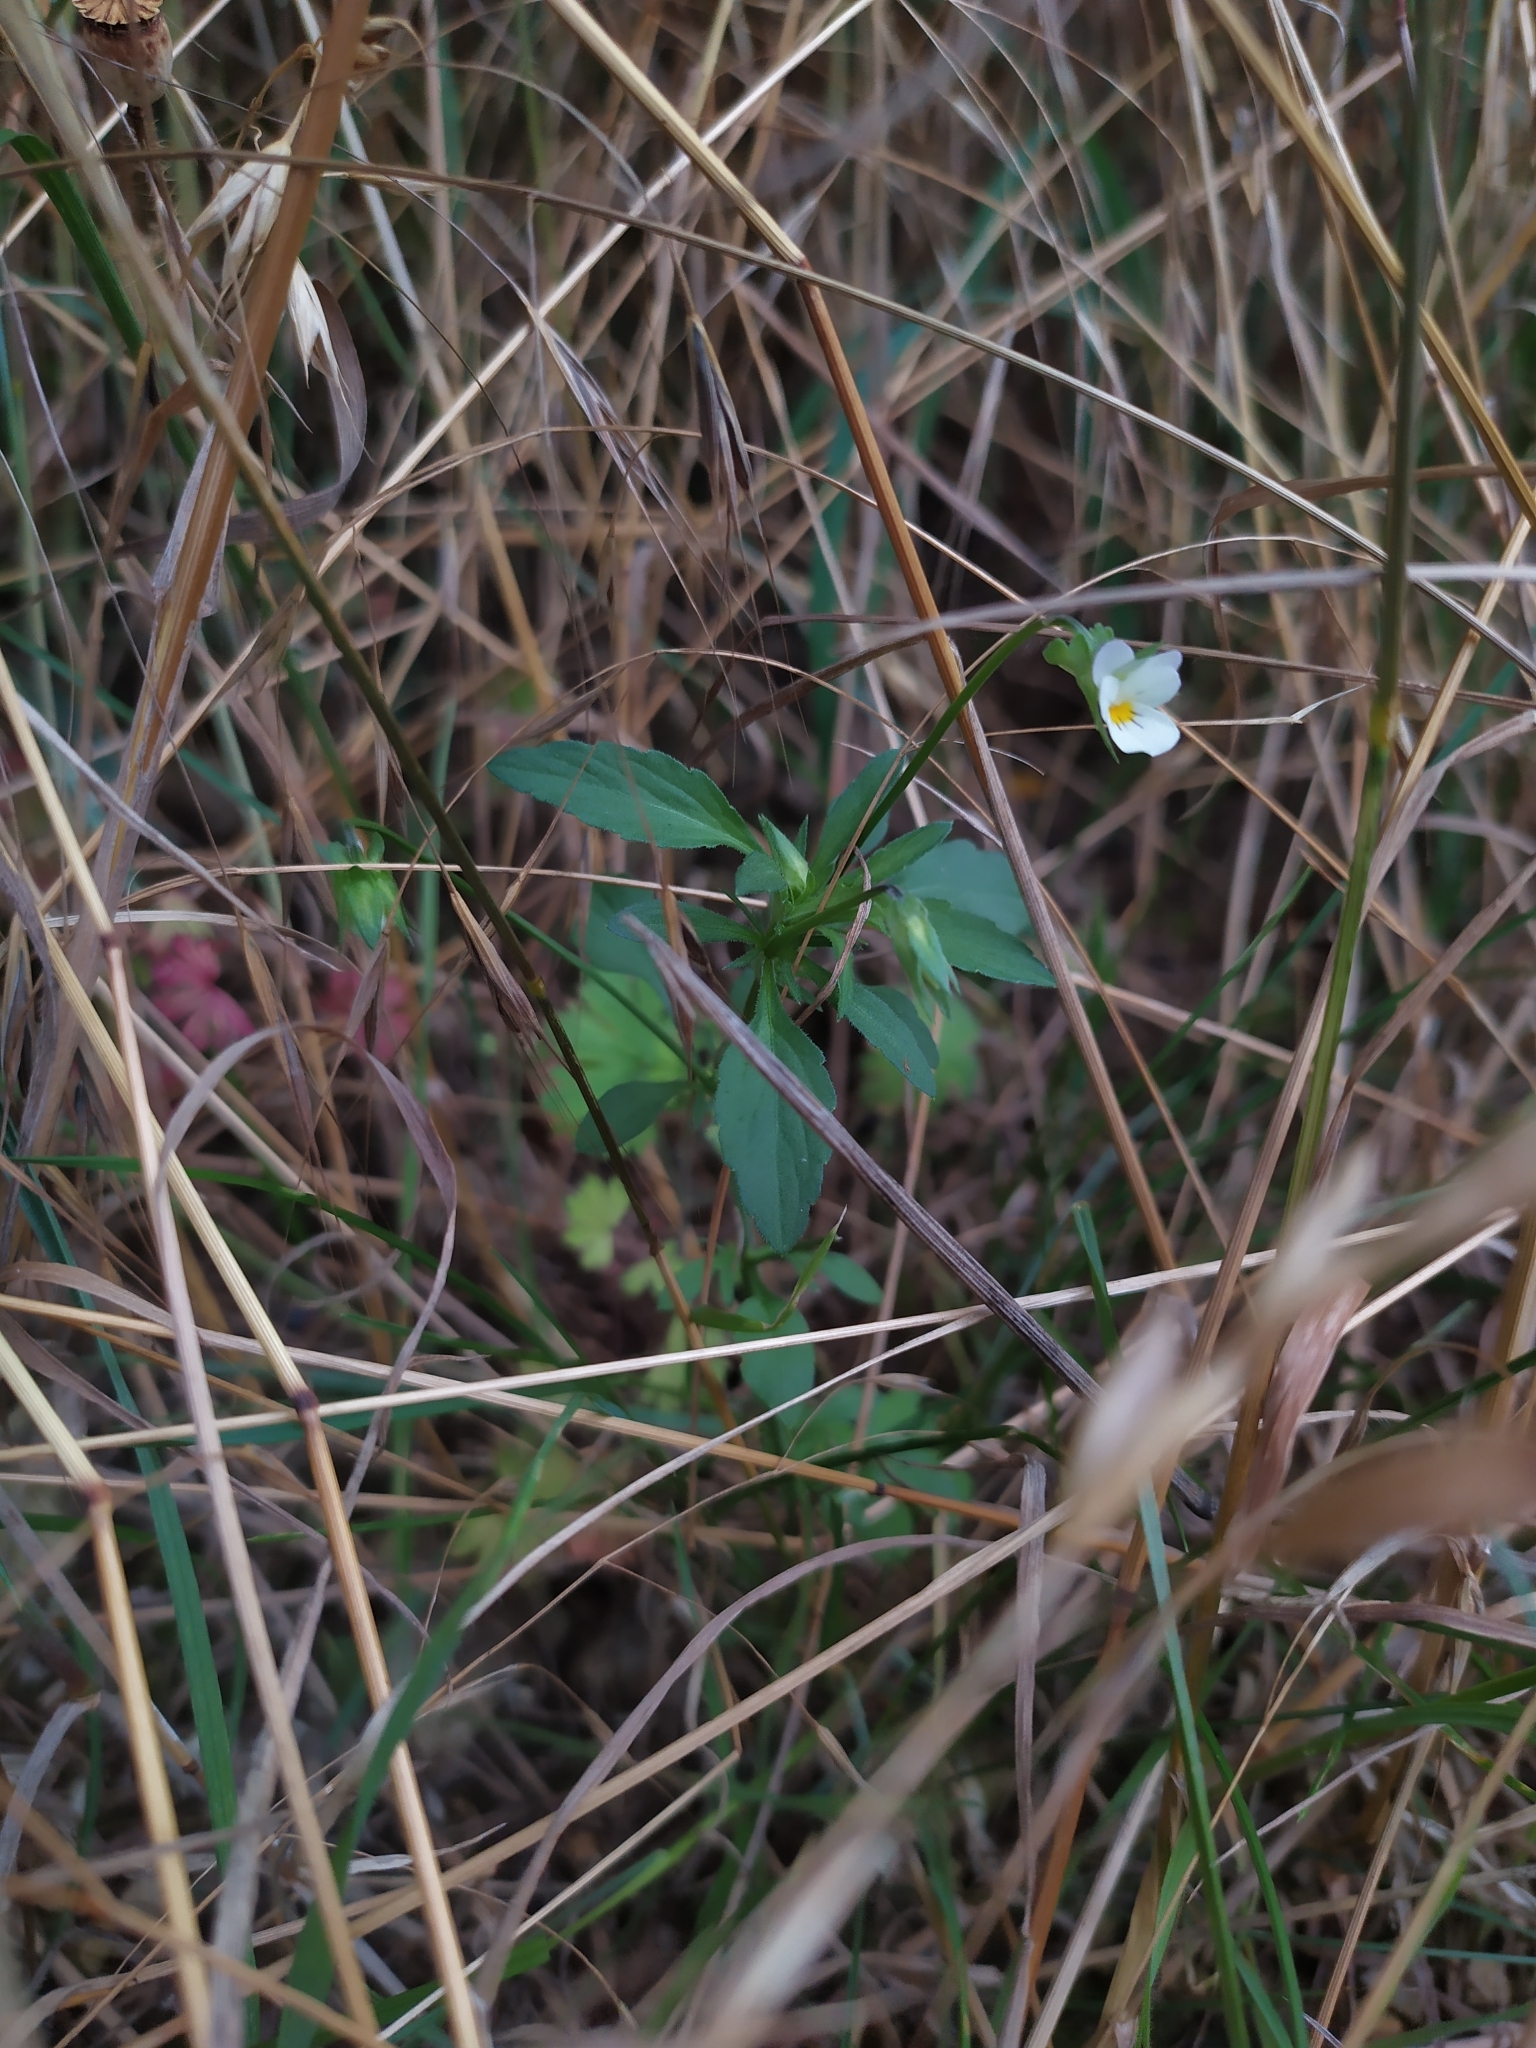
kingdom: Plantae
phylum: Tracheophyta
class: Magnoliopsida
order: Malpighiales
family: Violaceae
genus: Viola
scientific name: Viola arvensis
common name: Field pansy
